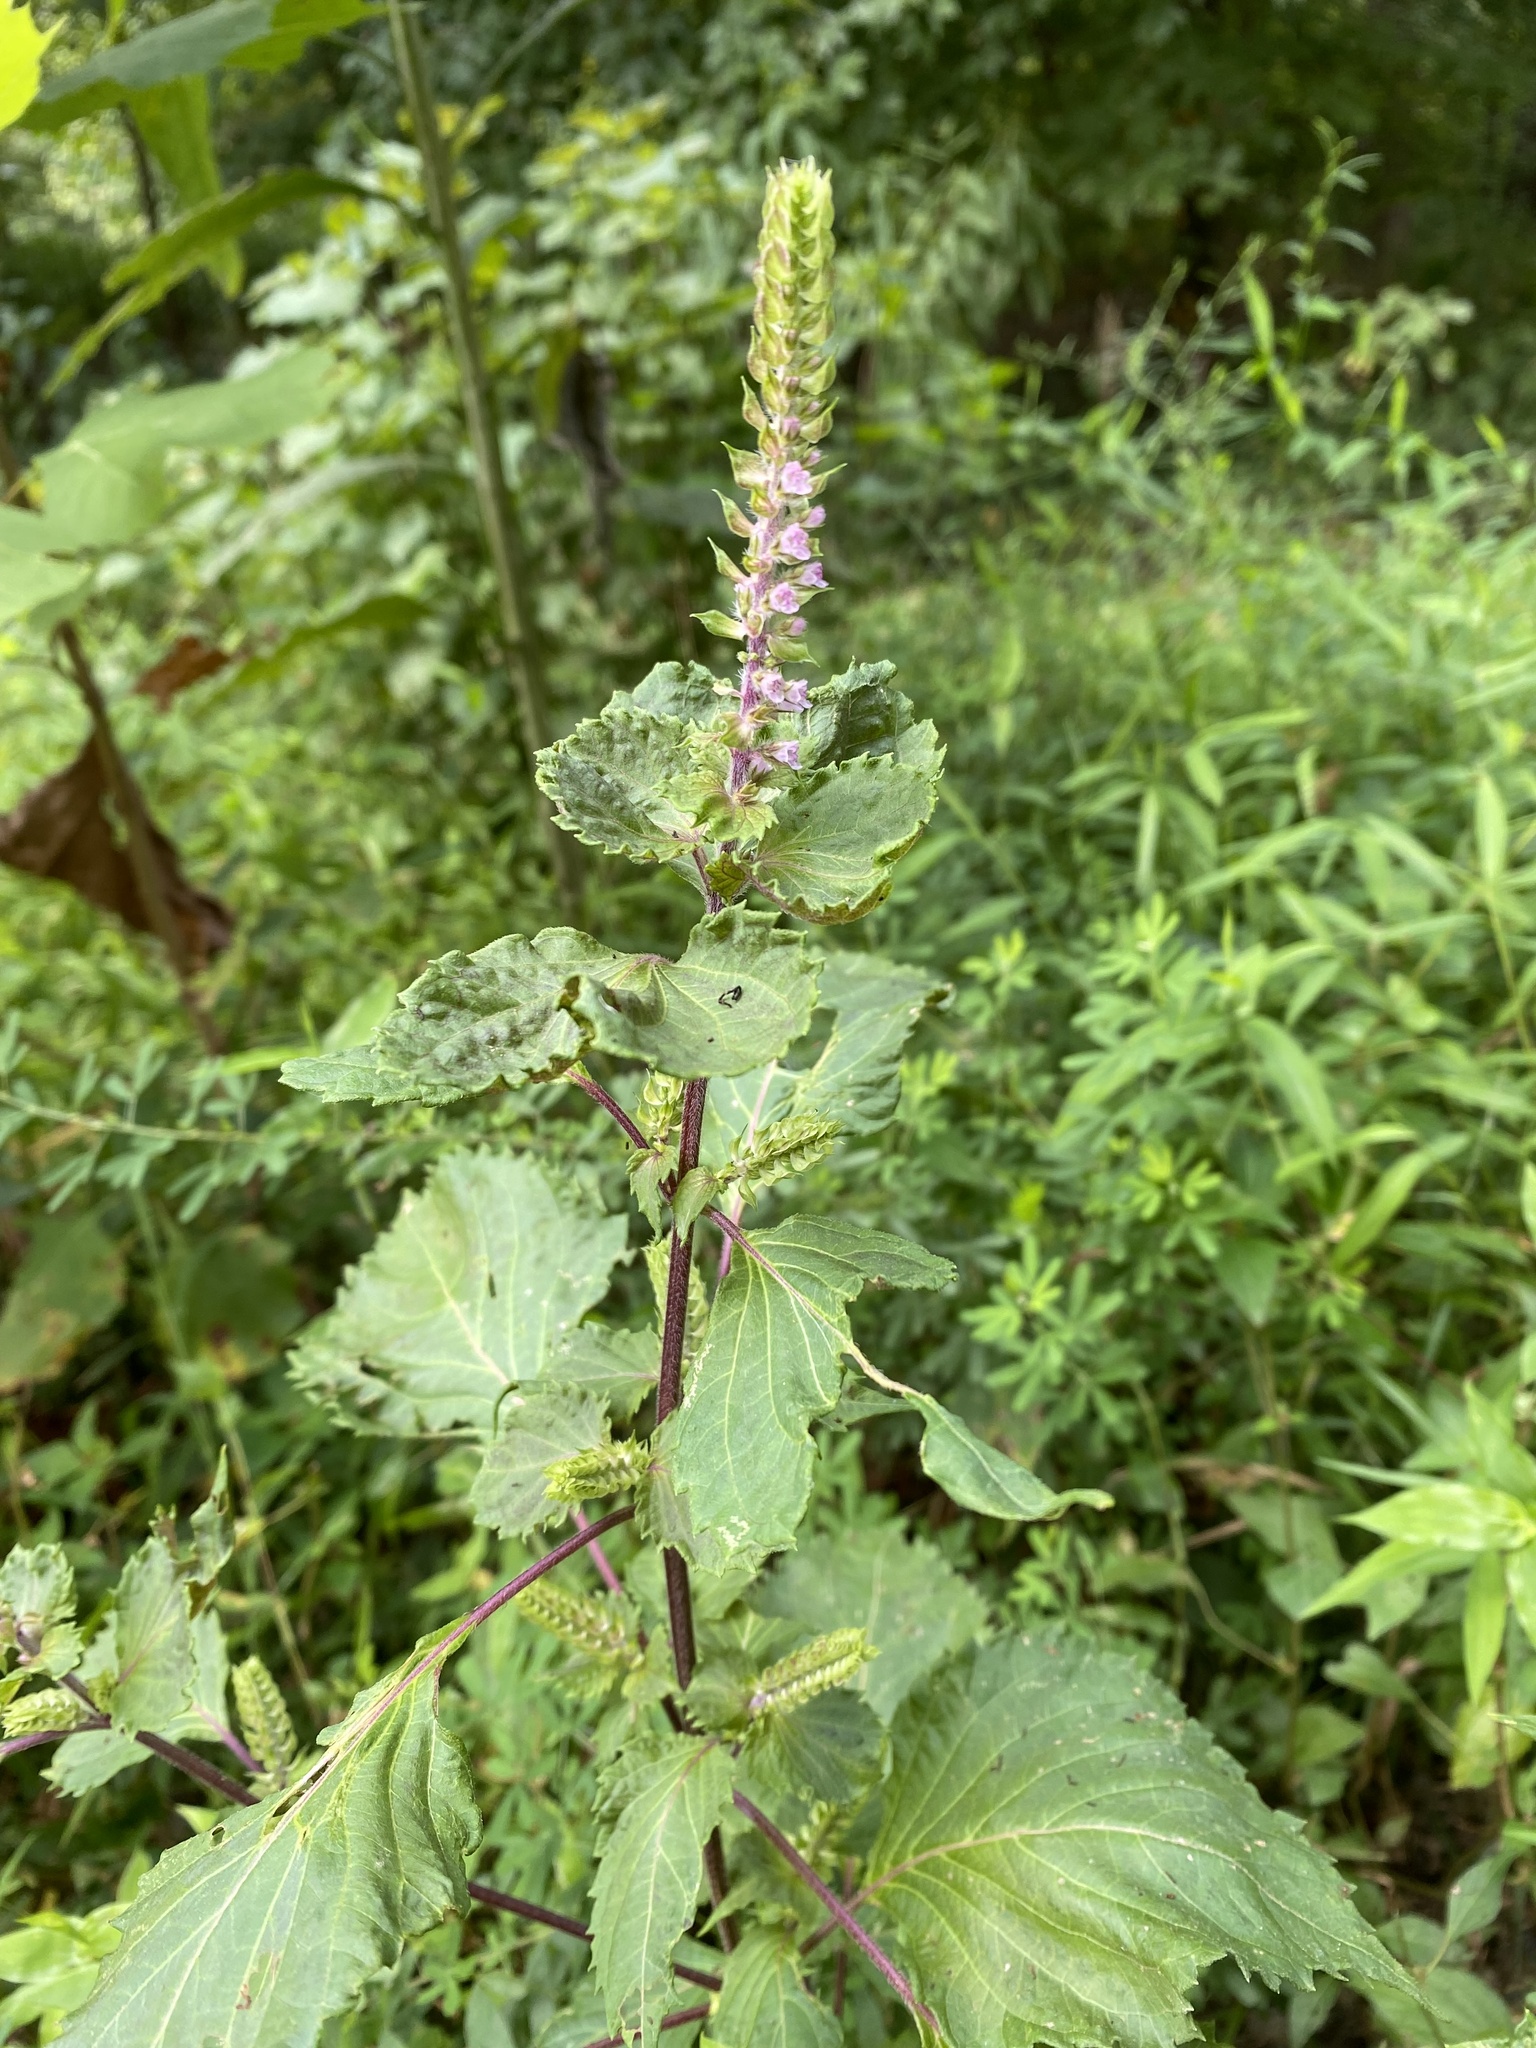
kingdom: Plantae
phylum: Tracheophyta
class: Magnoliopsida
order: Lamiales
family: Lamiaceae
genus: Perilla
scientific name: Perilla frutescens
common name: Perilla
